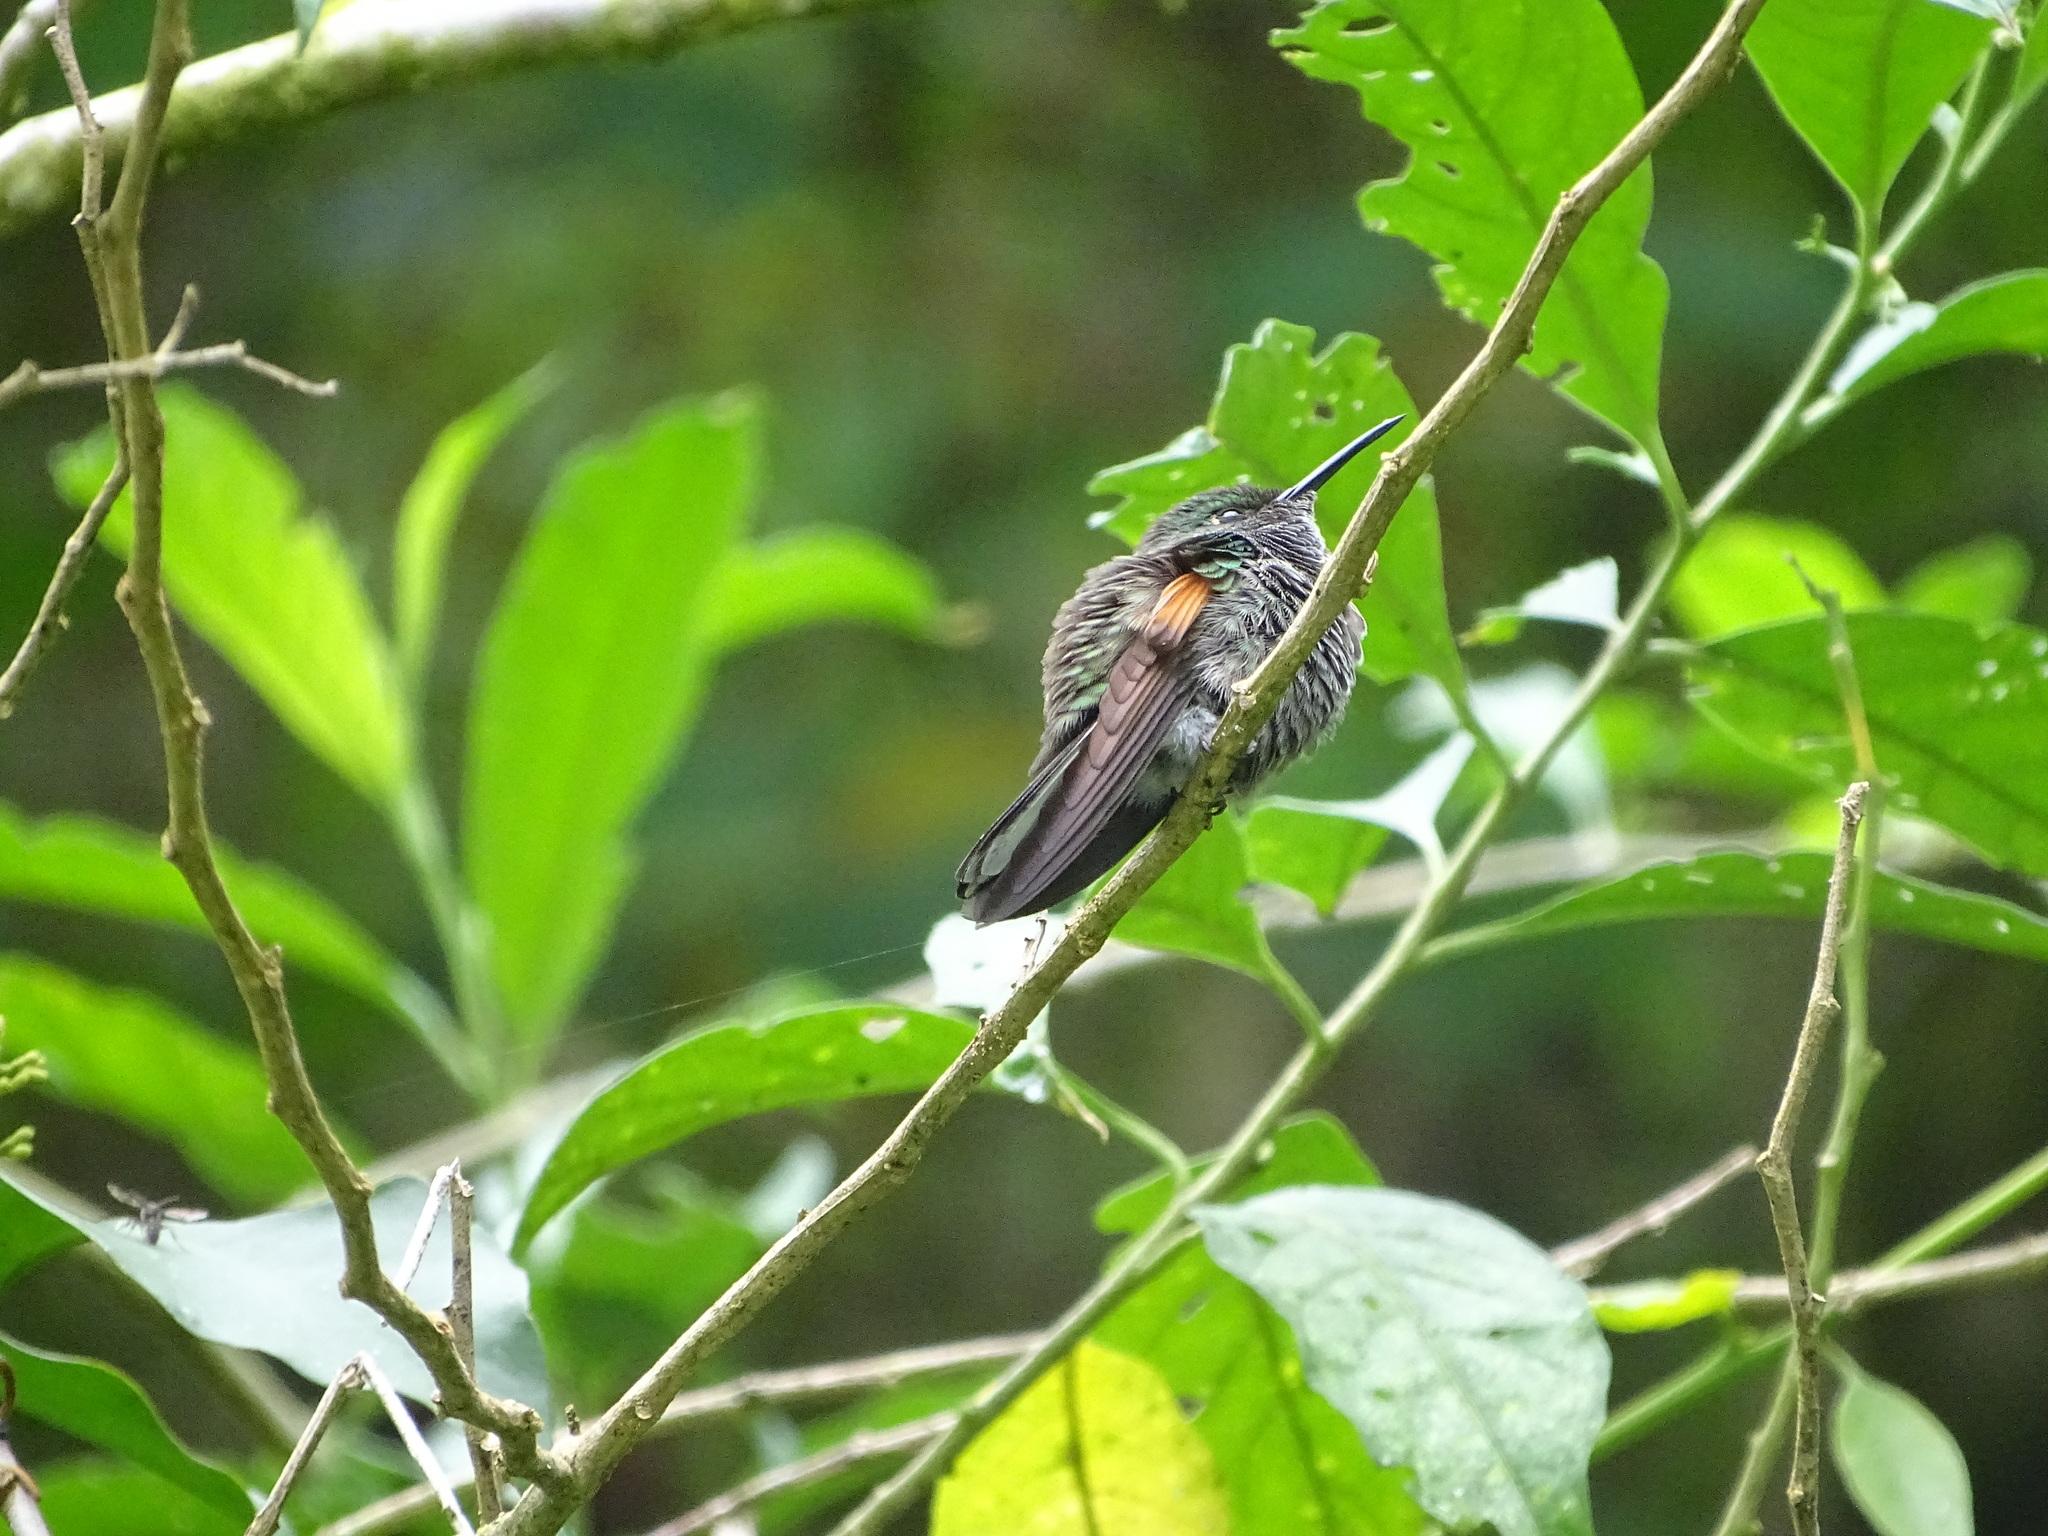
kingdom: Animalia
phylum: Chordata
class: Aves
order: Apodiformes
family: Trochilidae
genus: Eupherusa
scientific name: Eupherusa eximia
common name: Stripe-tailed hummingbird
